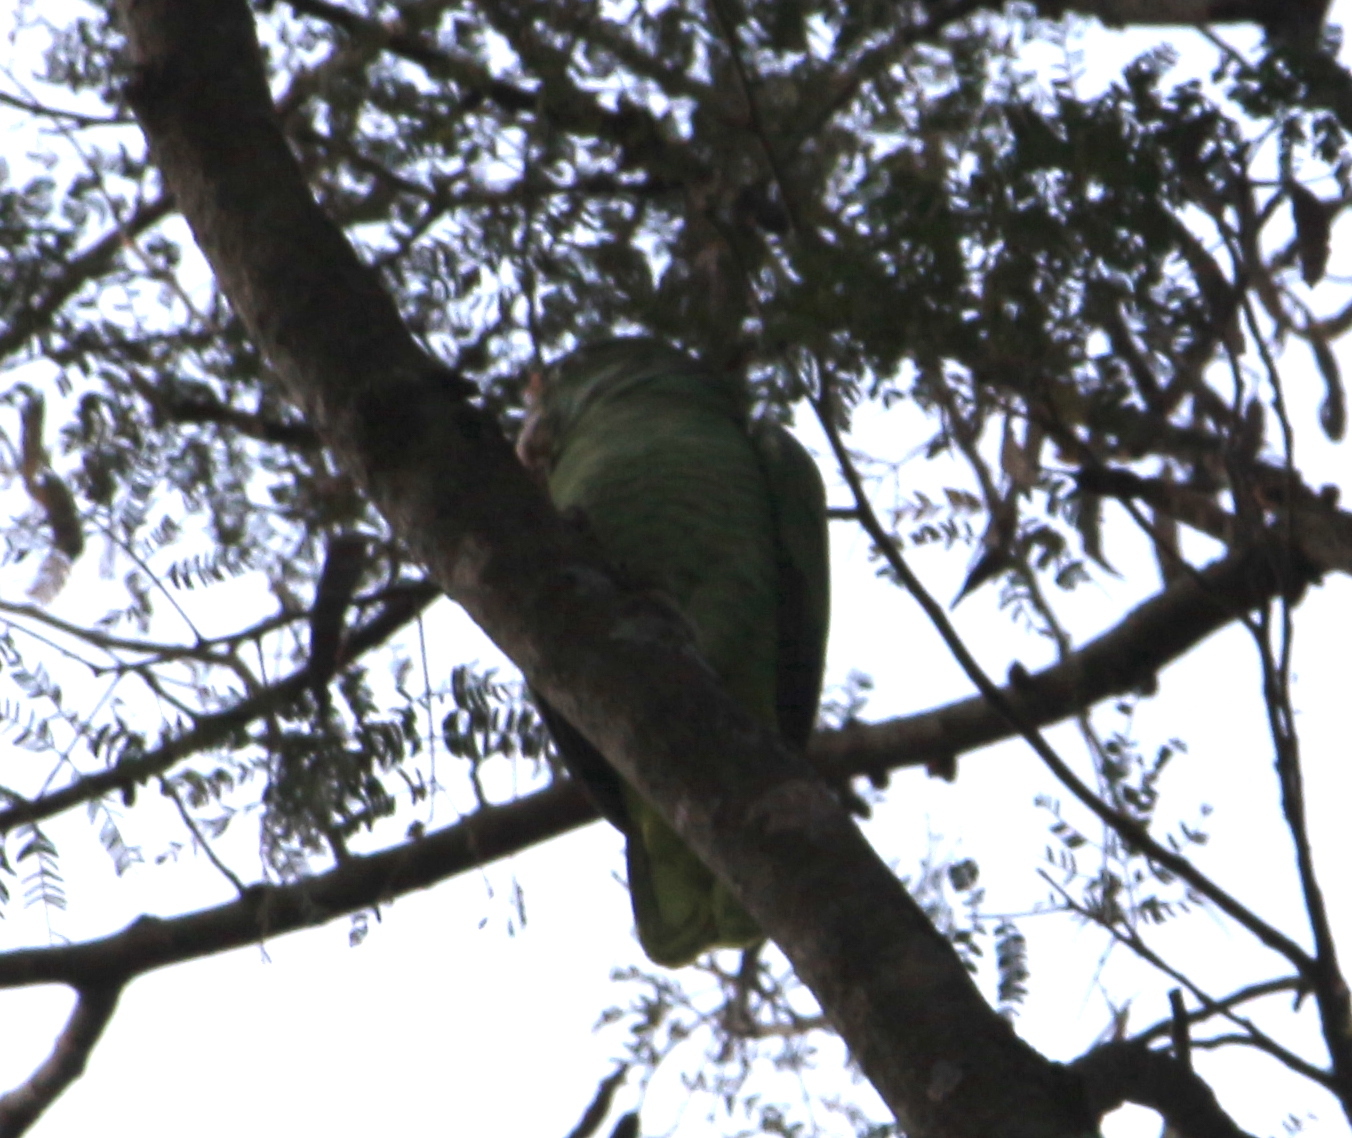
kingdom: Animalia
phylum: Chordata
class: Aves
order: Psittaciformes
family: Psittacidae
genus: Amazona
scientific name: Amazona tucumana
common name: Tucuman amazon
